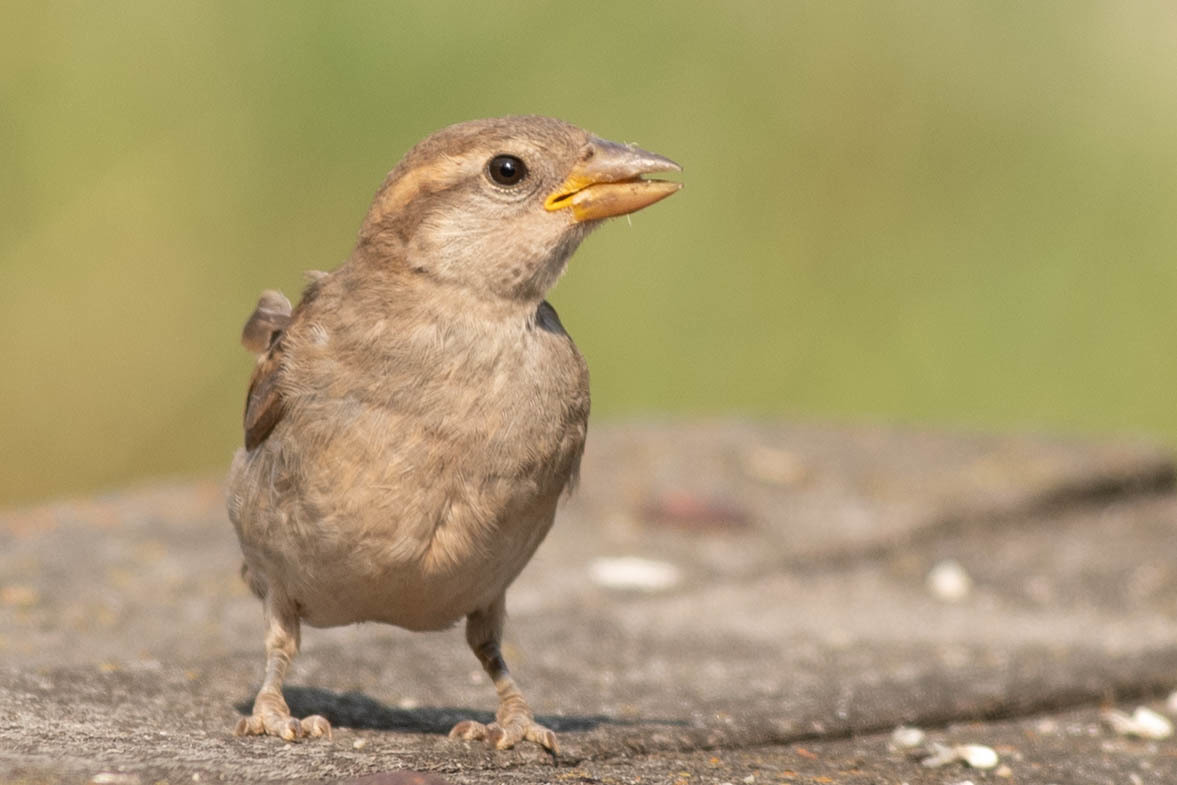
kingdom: Animalia
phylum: Chordata
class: Aves
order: Passeriformes
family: Passeridae
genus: Passer
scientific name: Passer domesticus
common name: House sparrow
